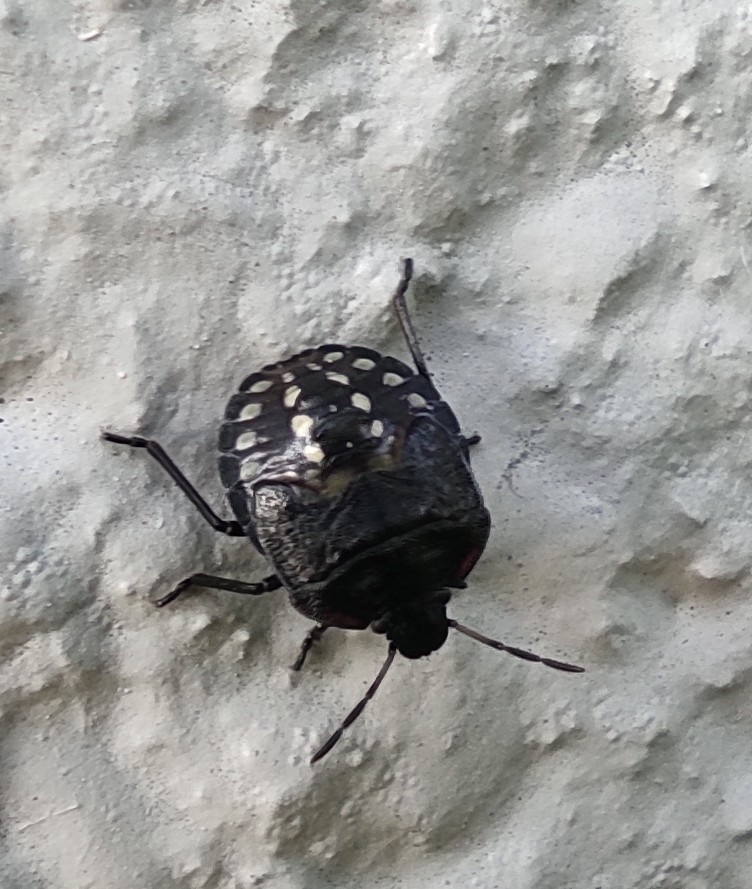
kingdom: Animalia
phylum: Arthropoda
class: Insecta
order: Hemiptera
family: Pentatomidae
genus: Nezara
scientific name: Nezara viridula
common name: Southern green stink bug
